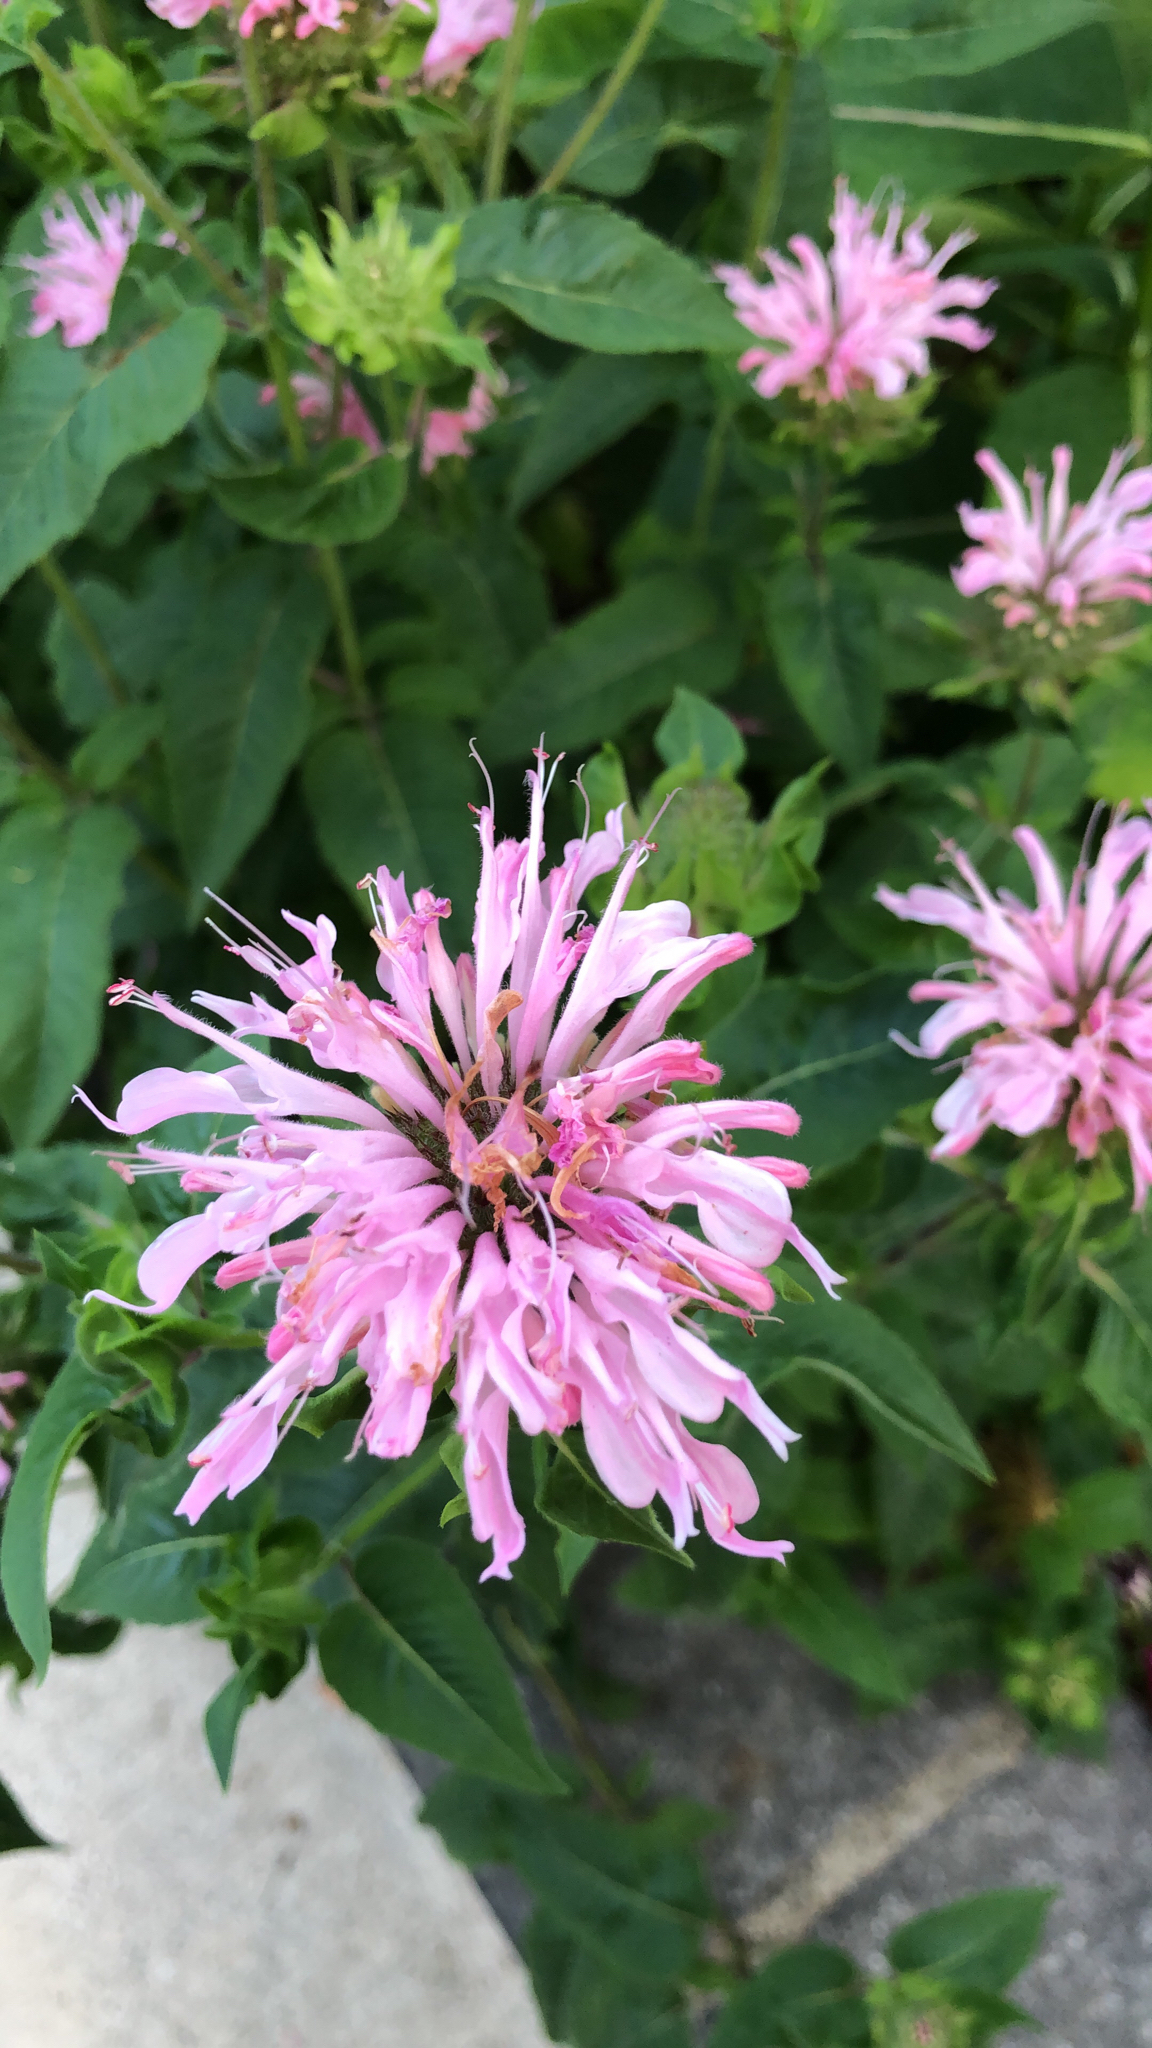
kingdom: Plantae
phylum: Tracheophyta
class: Magnoliopsida
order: Lamiales
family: Lamiaceae
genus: Monarda
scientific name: Monarda fistulosa
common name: Purple beebalm
